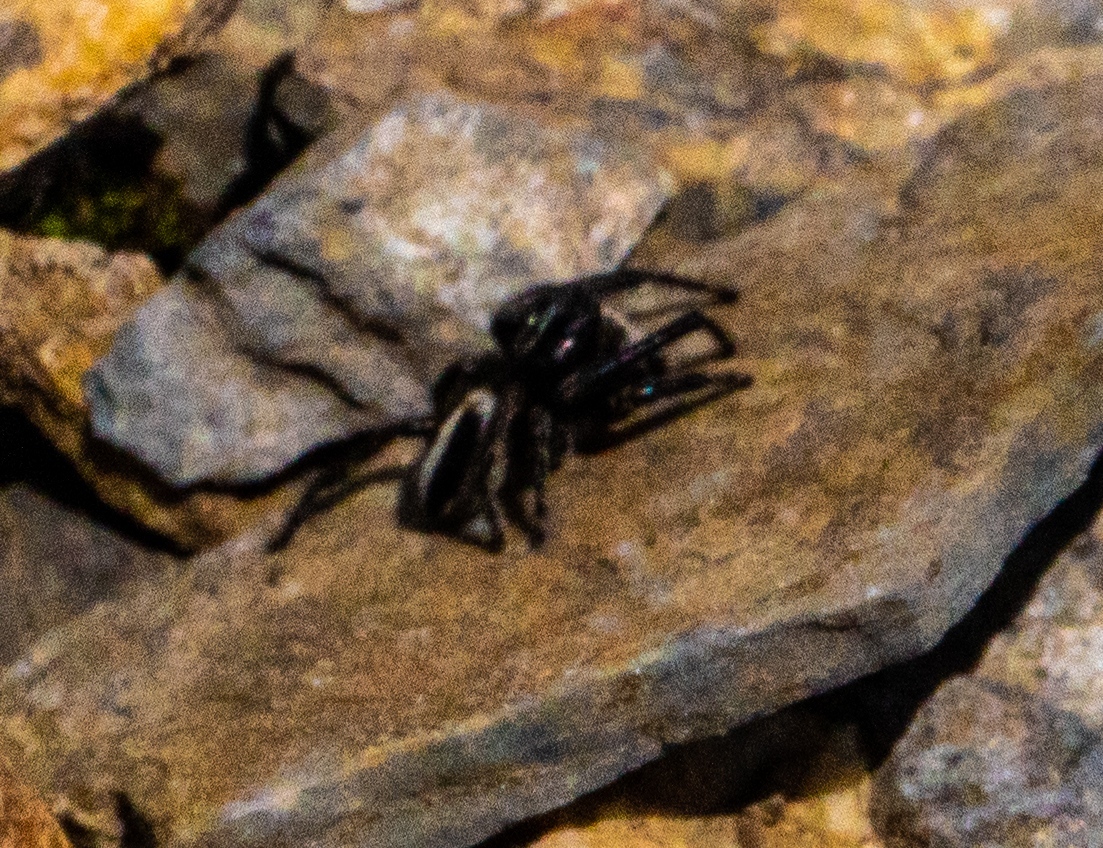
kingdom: Animalia
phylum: Arthropoda
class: Arachnida
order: Araneae
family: Salticidae
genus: Attulus
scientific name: Attulus longipes
